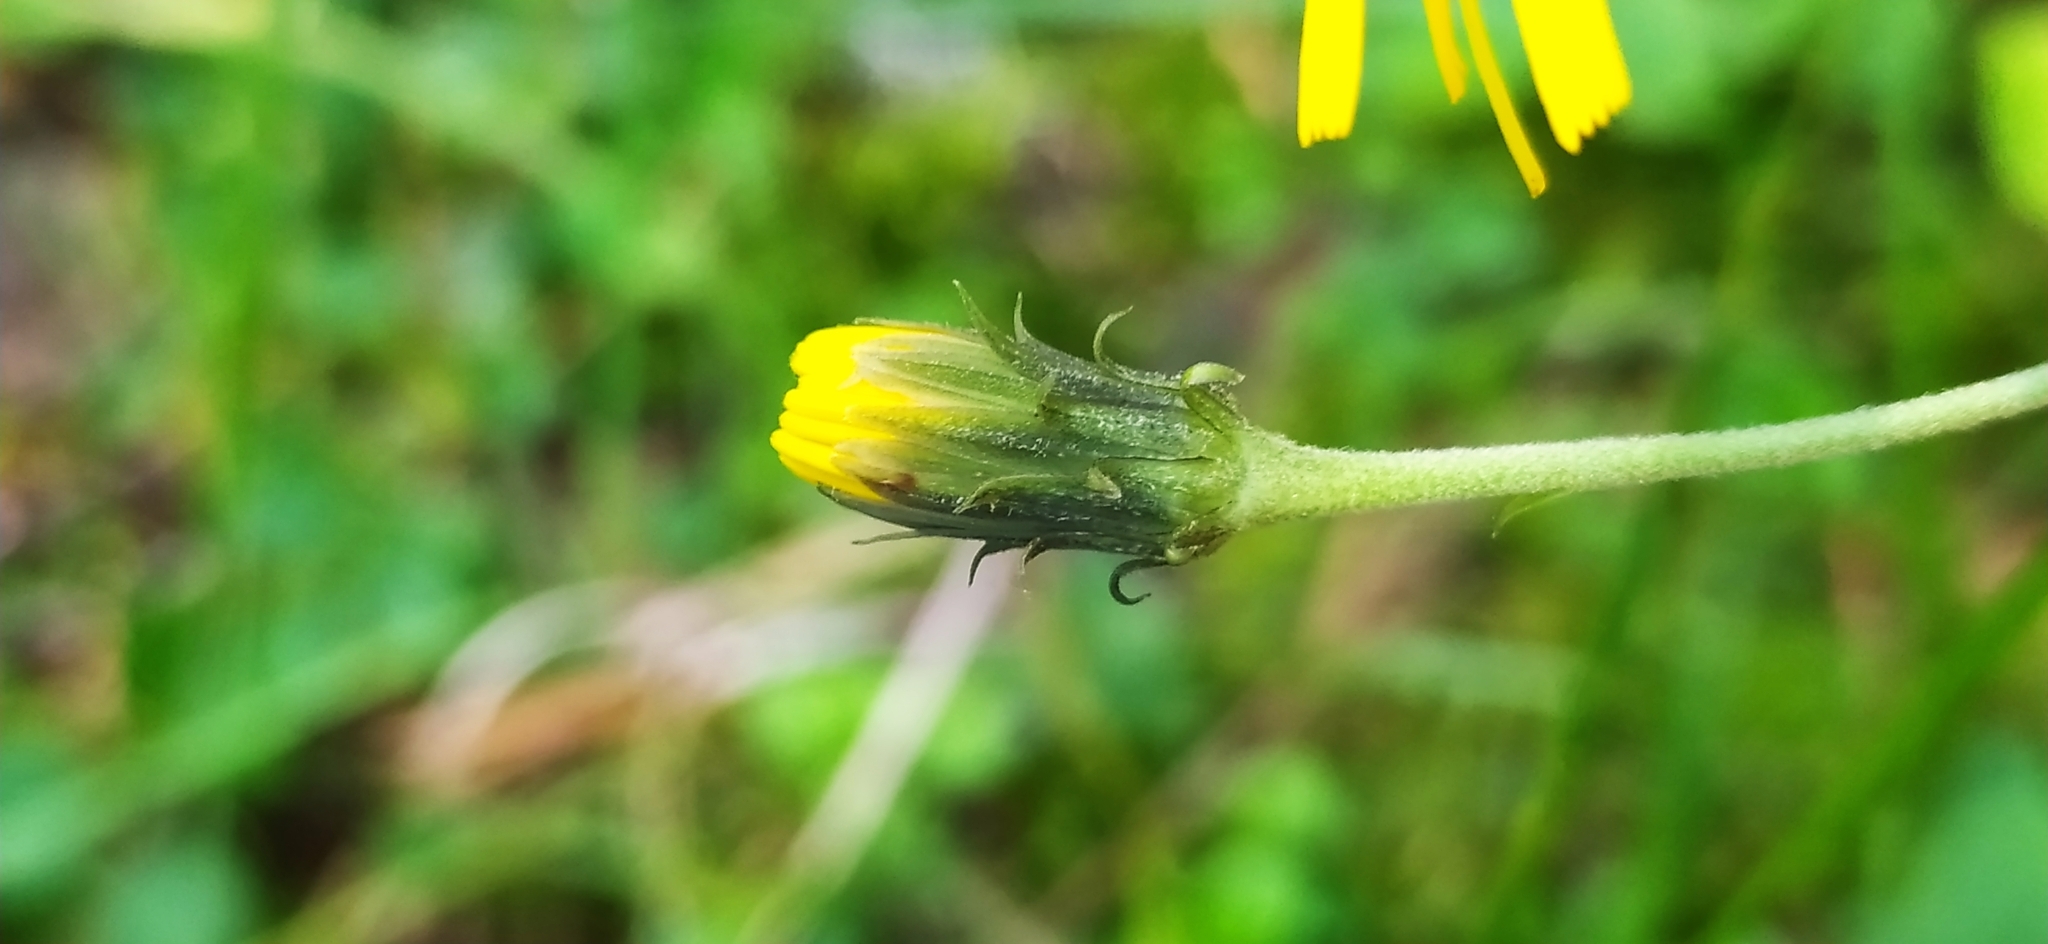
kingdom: Plantae
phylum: Tracheophyta
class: Magnoliopsida
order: Asterales
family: Asteraceae
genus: Hieracium
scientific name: Hieracium umbellatum
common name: Northern hawkweed
